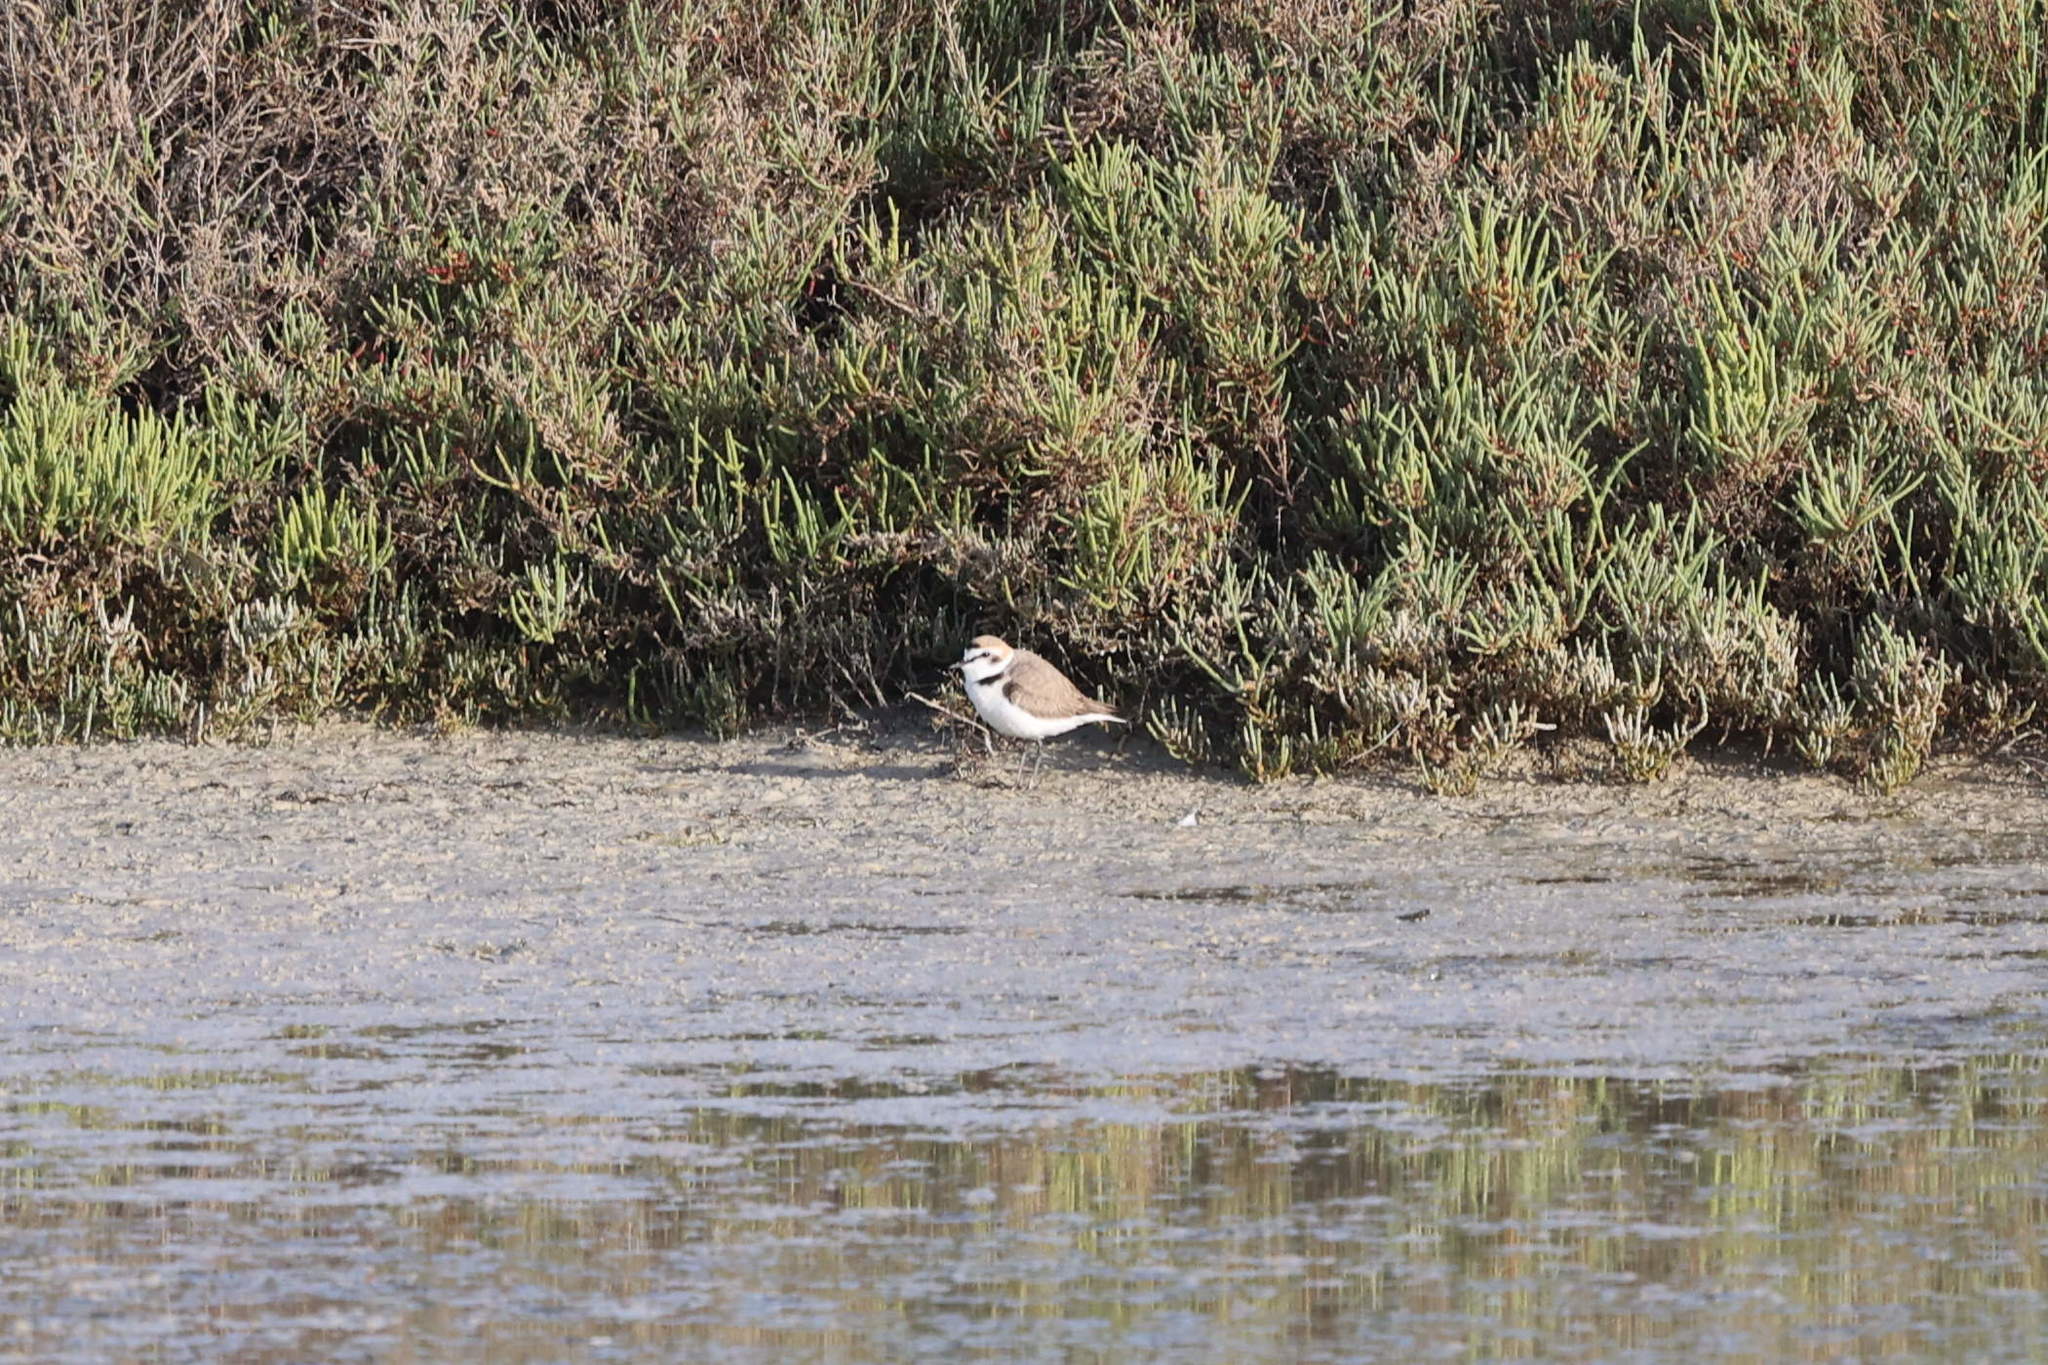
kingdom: Animalia
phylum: Chordata
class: Aves
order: Charadriiformes
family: Charadriidae
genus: Charadrius
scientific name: Charadrius alexandrinus
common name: Kentish plover
